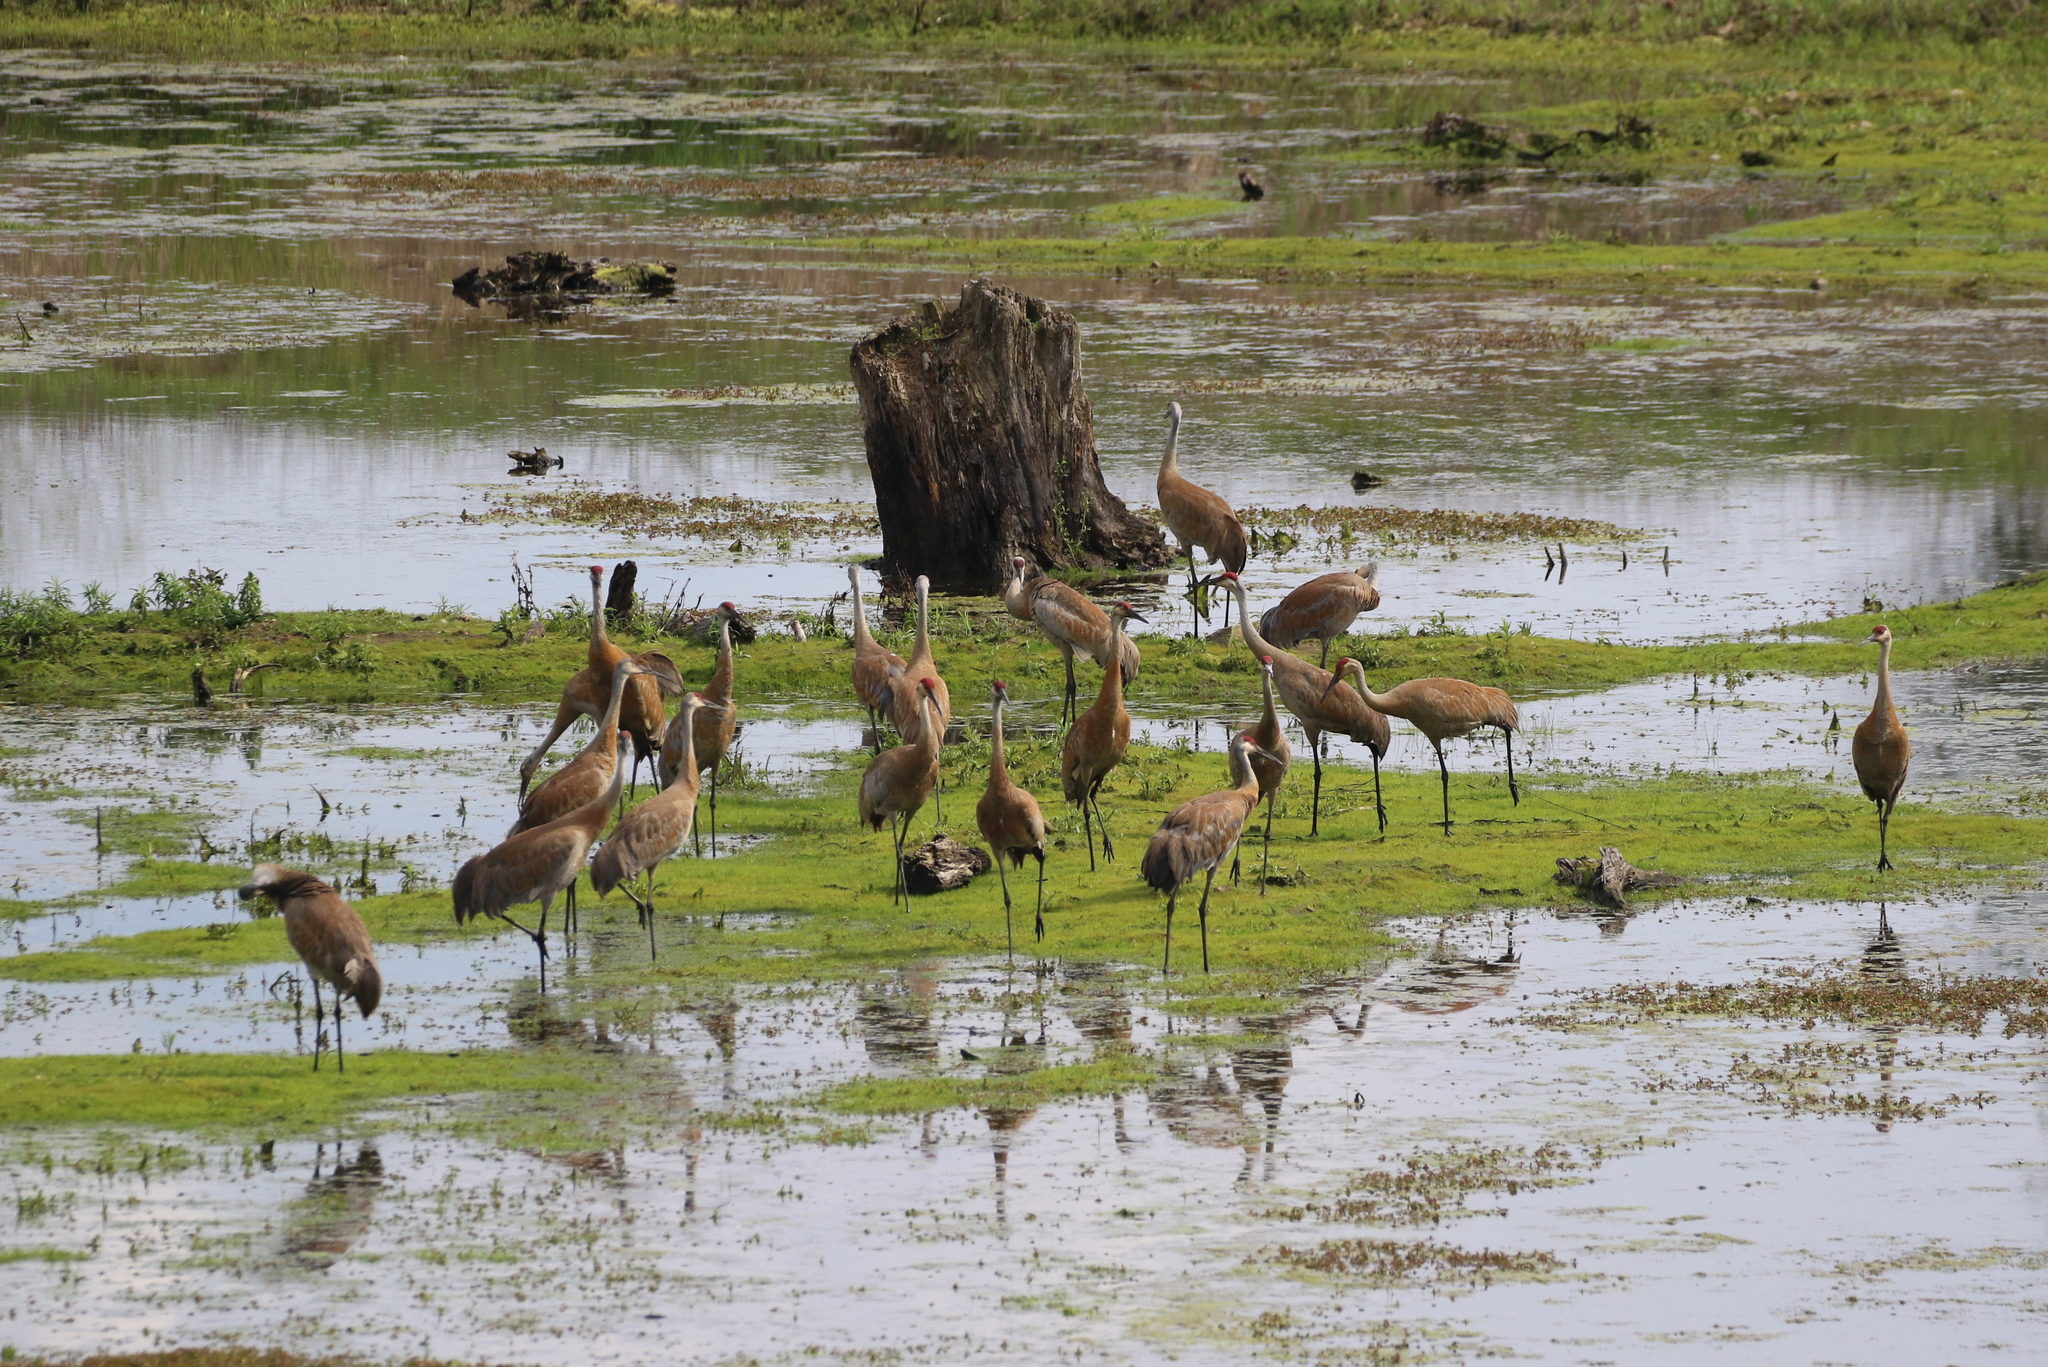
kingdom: Animalia
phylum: Chordata
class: Aves
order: Gruiformes
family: Gruidae
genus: Grus
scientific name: Grus canadensis
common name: Sandhill crane
